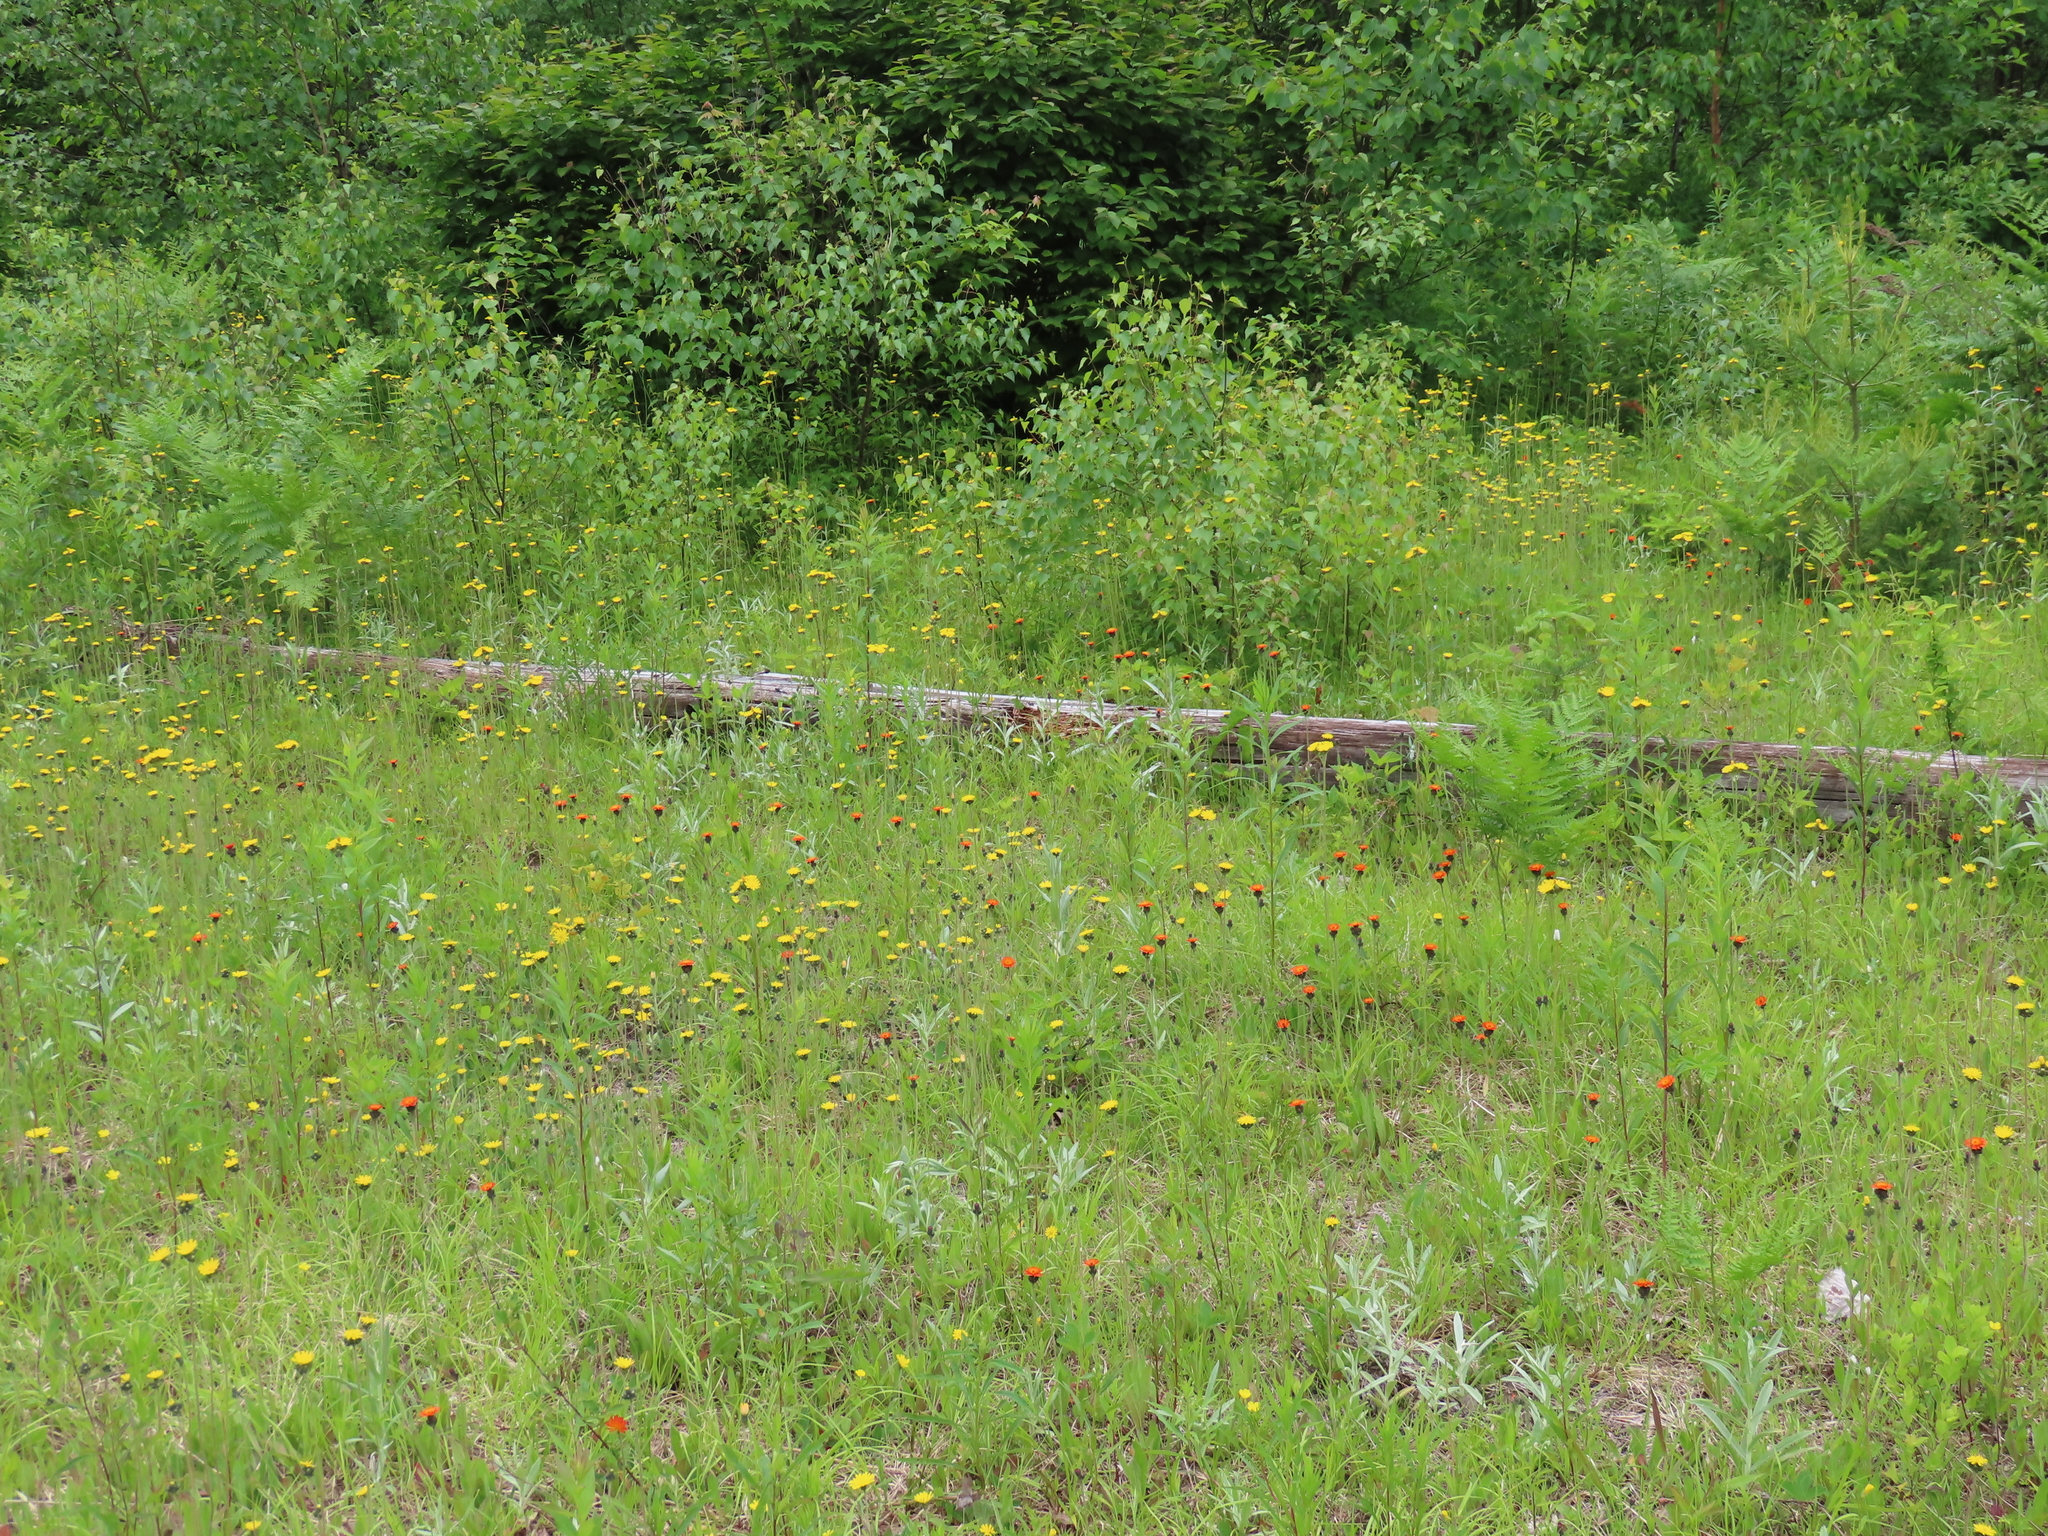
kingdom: Plantae
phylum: Tracheophyta
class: Magnoliopsida
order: Asterales
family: Asteraceae
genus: Pilosella
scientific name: Pilosella aurantiaca
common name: Fox-and-cubs
